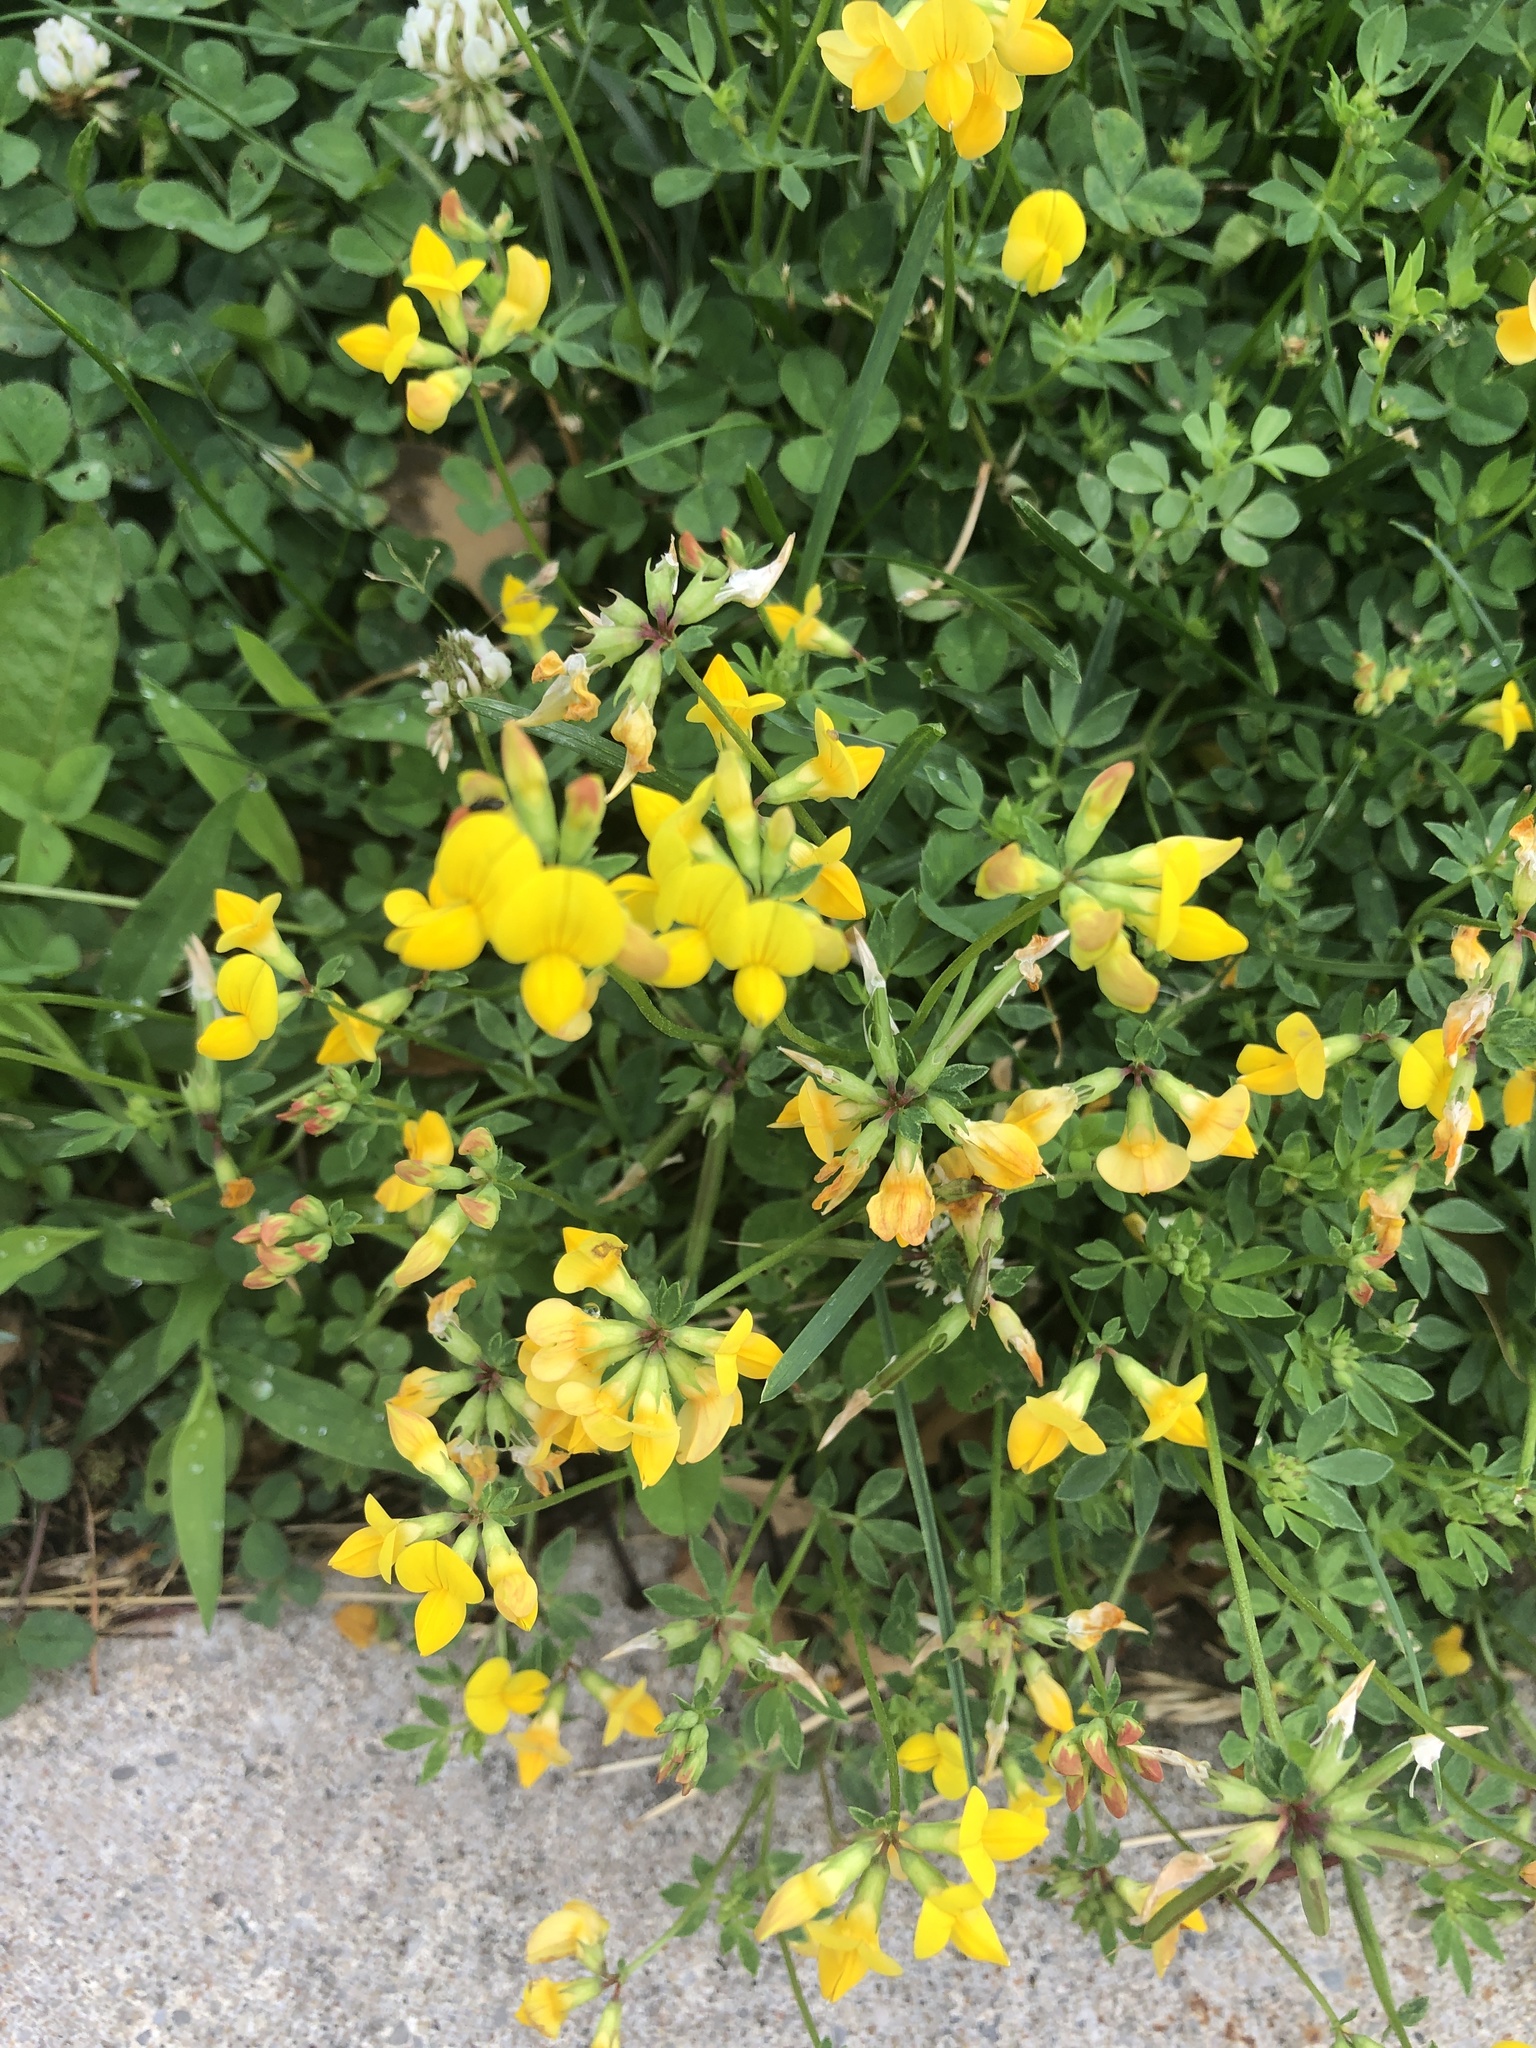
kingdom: Plantae
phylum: Tracheophyta
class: Magnoliopsida
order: Fabales
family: Fabaceae
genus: Lotus
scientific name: Lotus corniculatus
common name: Common bird's-foot-trefoil
